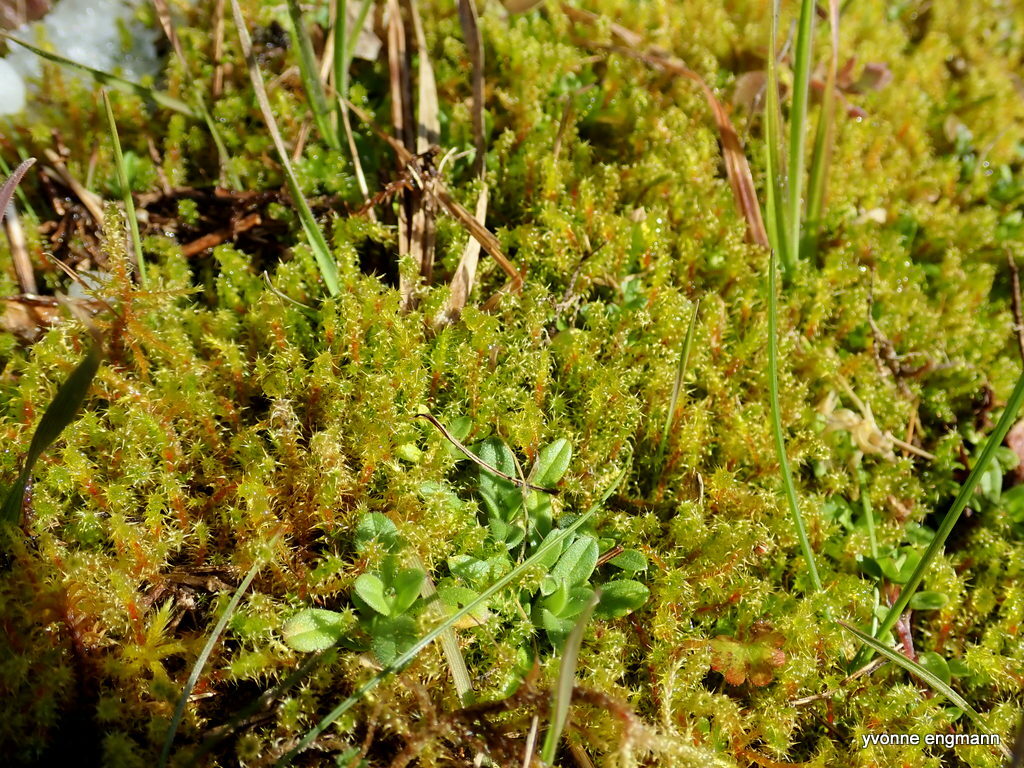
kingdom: Plantae
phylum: Bryophyta
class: Bryopsida
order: Hypnales
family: Hylocomiaceae
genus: Rhytidiadelphus
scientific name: Rhytidiadelphus squarrosus
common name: Springy turf-moss
